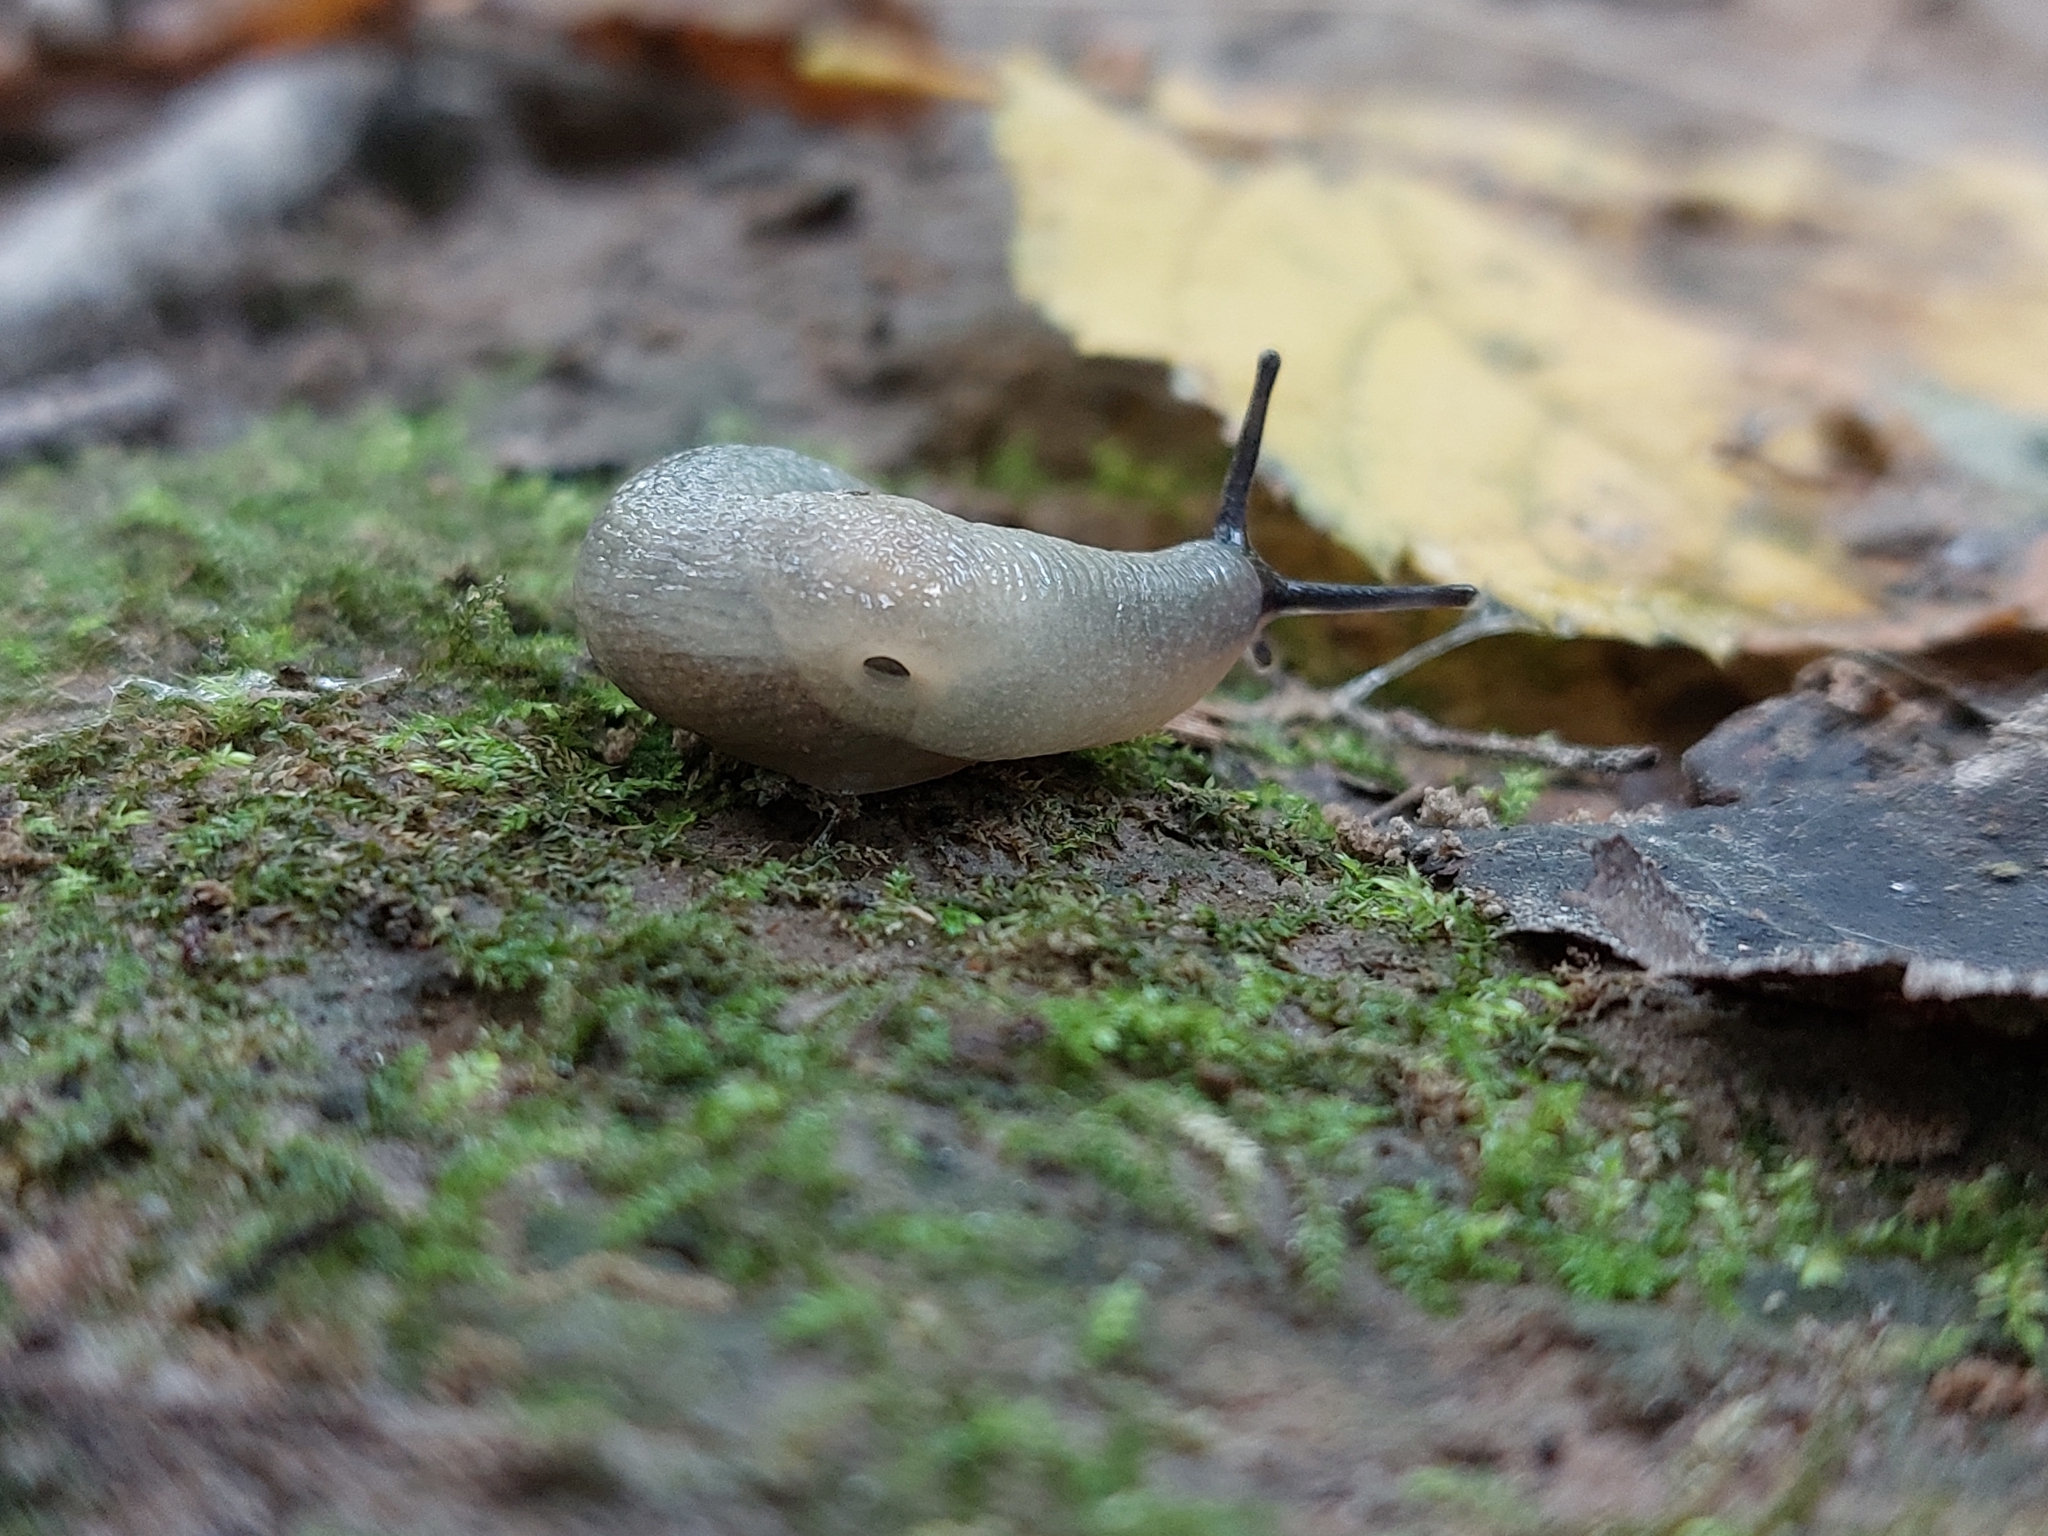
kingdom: Animalia
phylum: Mollusca
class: Gastropoda
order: Stylommatophora
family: Agriolimacidae
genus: Krynickillus
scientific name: Krynickillus melanocephalus
